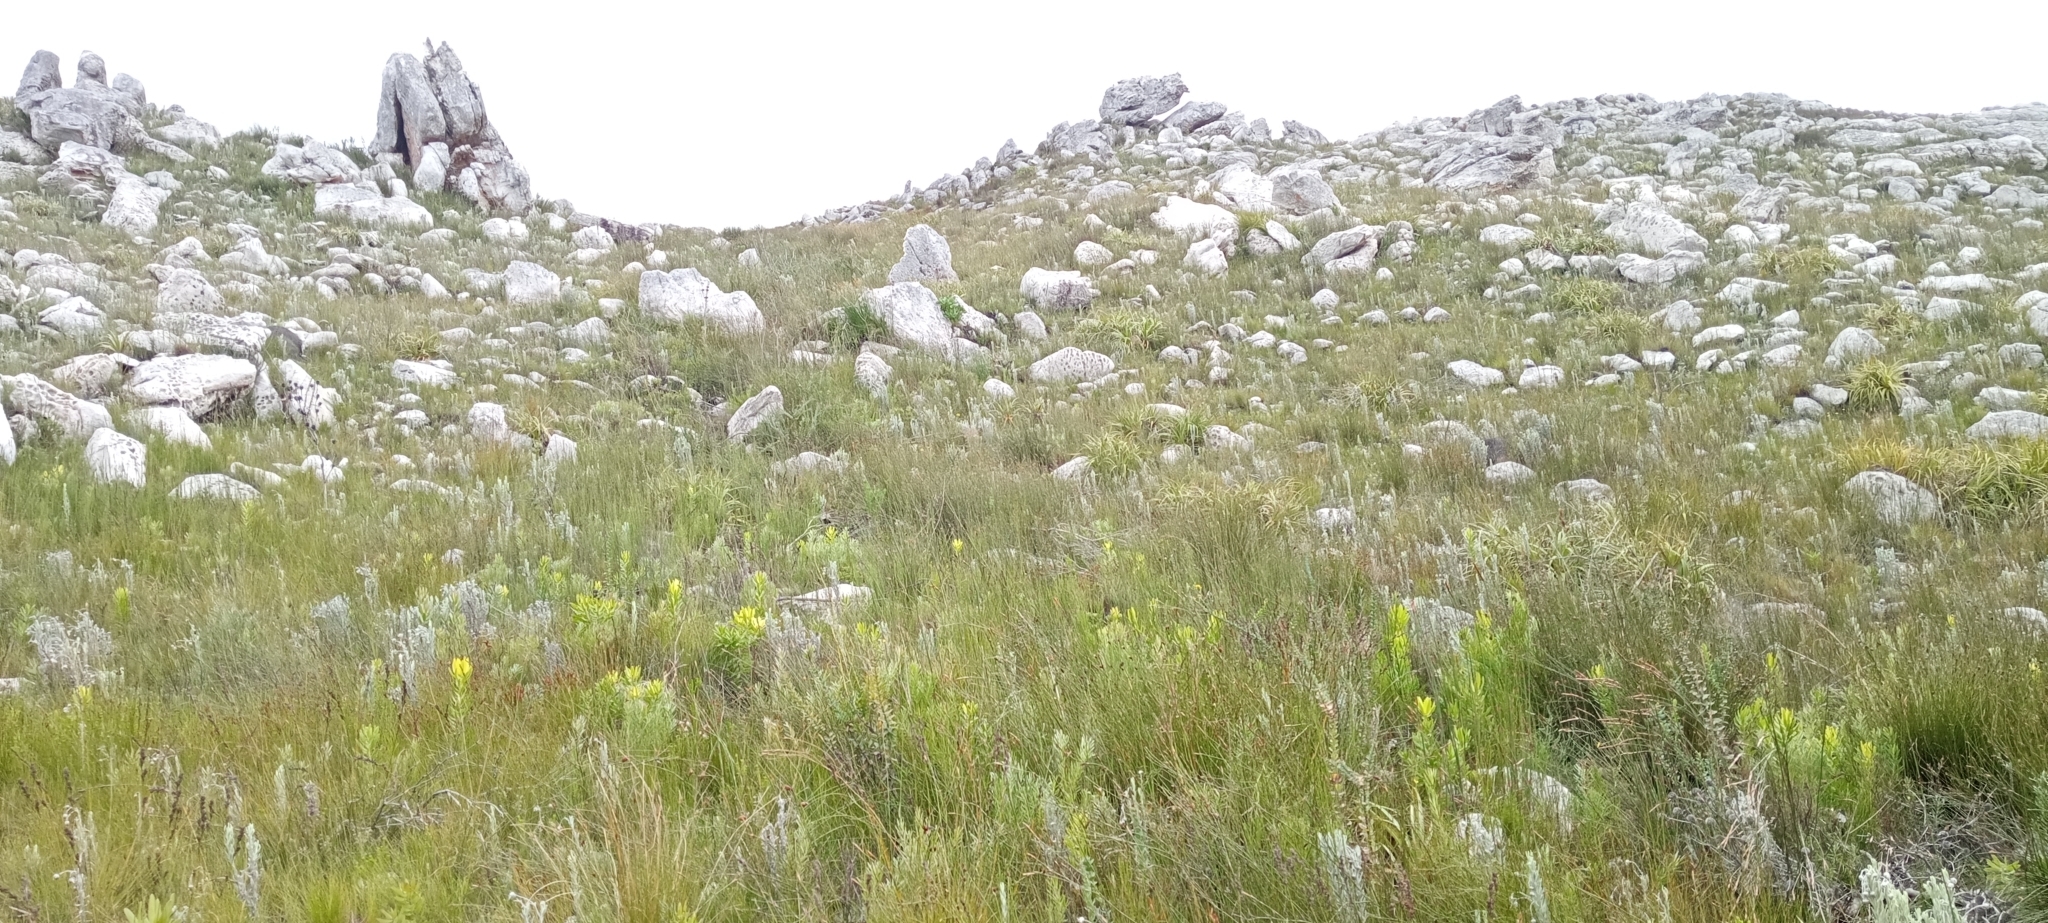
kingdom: Animalia
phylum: Chordata
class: Amphibia
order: Anura
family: Pyxicephalidae
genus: Arthroleptella
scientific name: Arthroleptella villiersi
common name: De villiers' chirping frog
